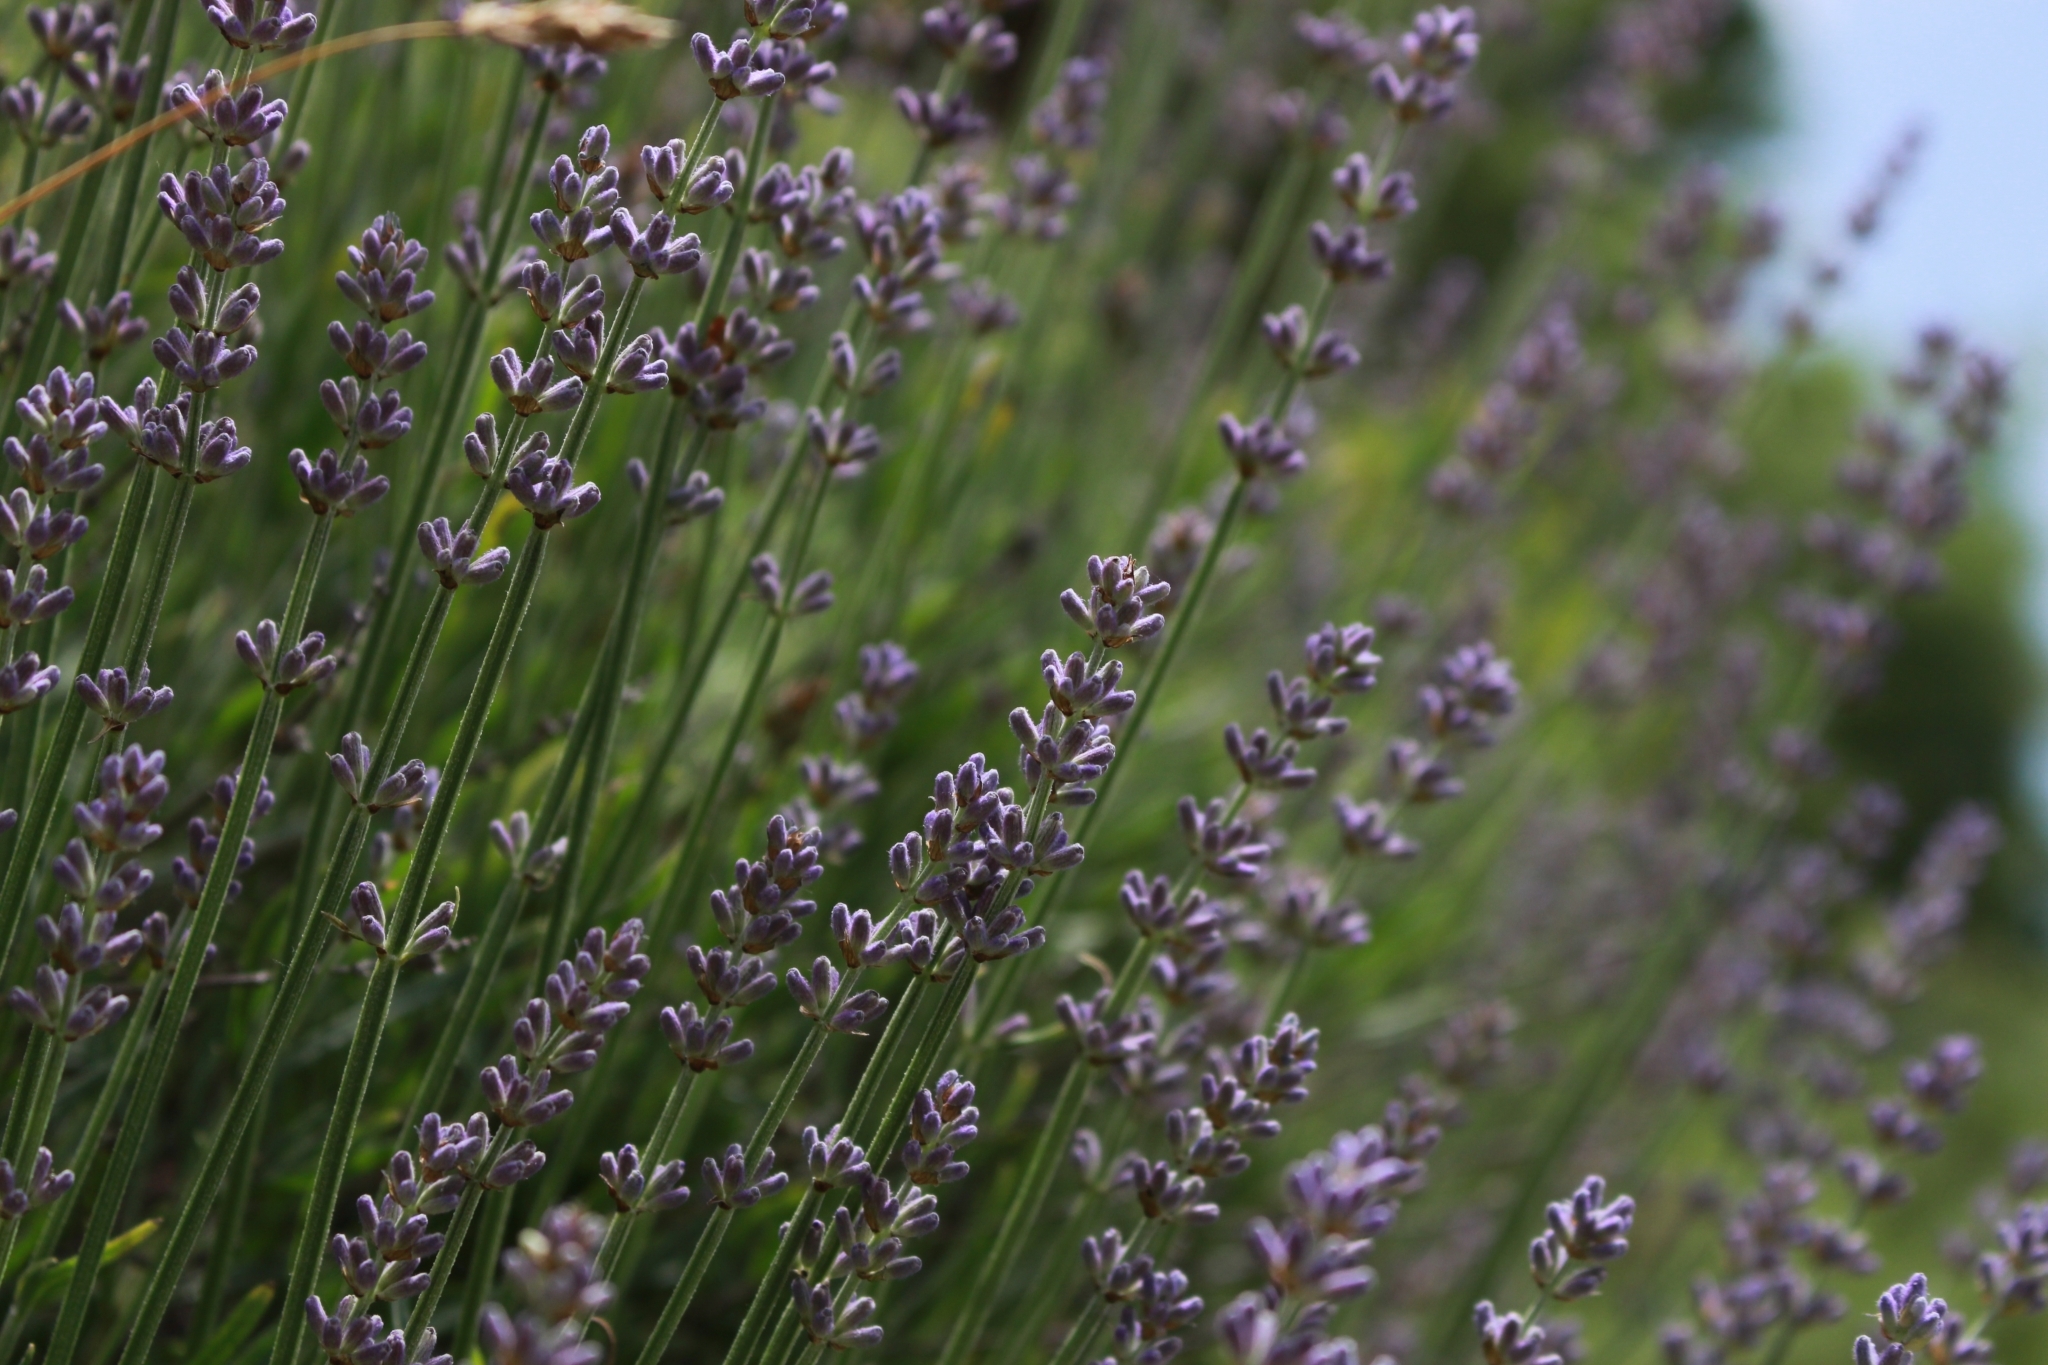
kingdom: Plantae
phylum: Tracheophyta
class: Magnoliopsida
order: Lamiales
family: Lamiaceae
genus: Lavandula
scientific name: Lavandula angustifolia
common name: Garden lavender
